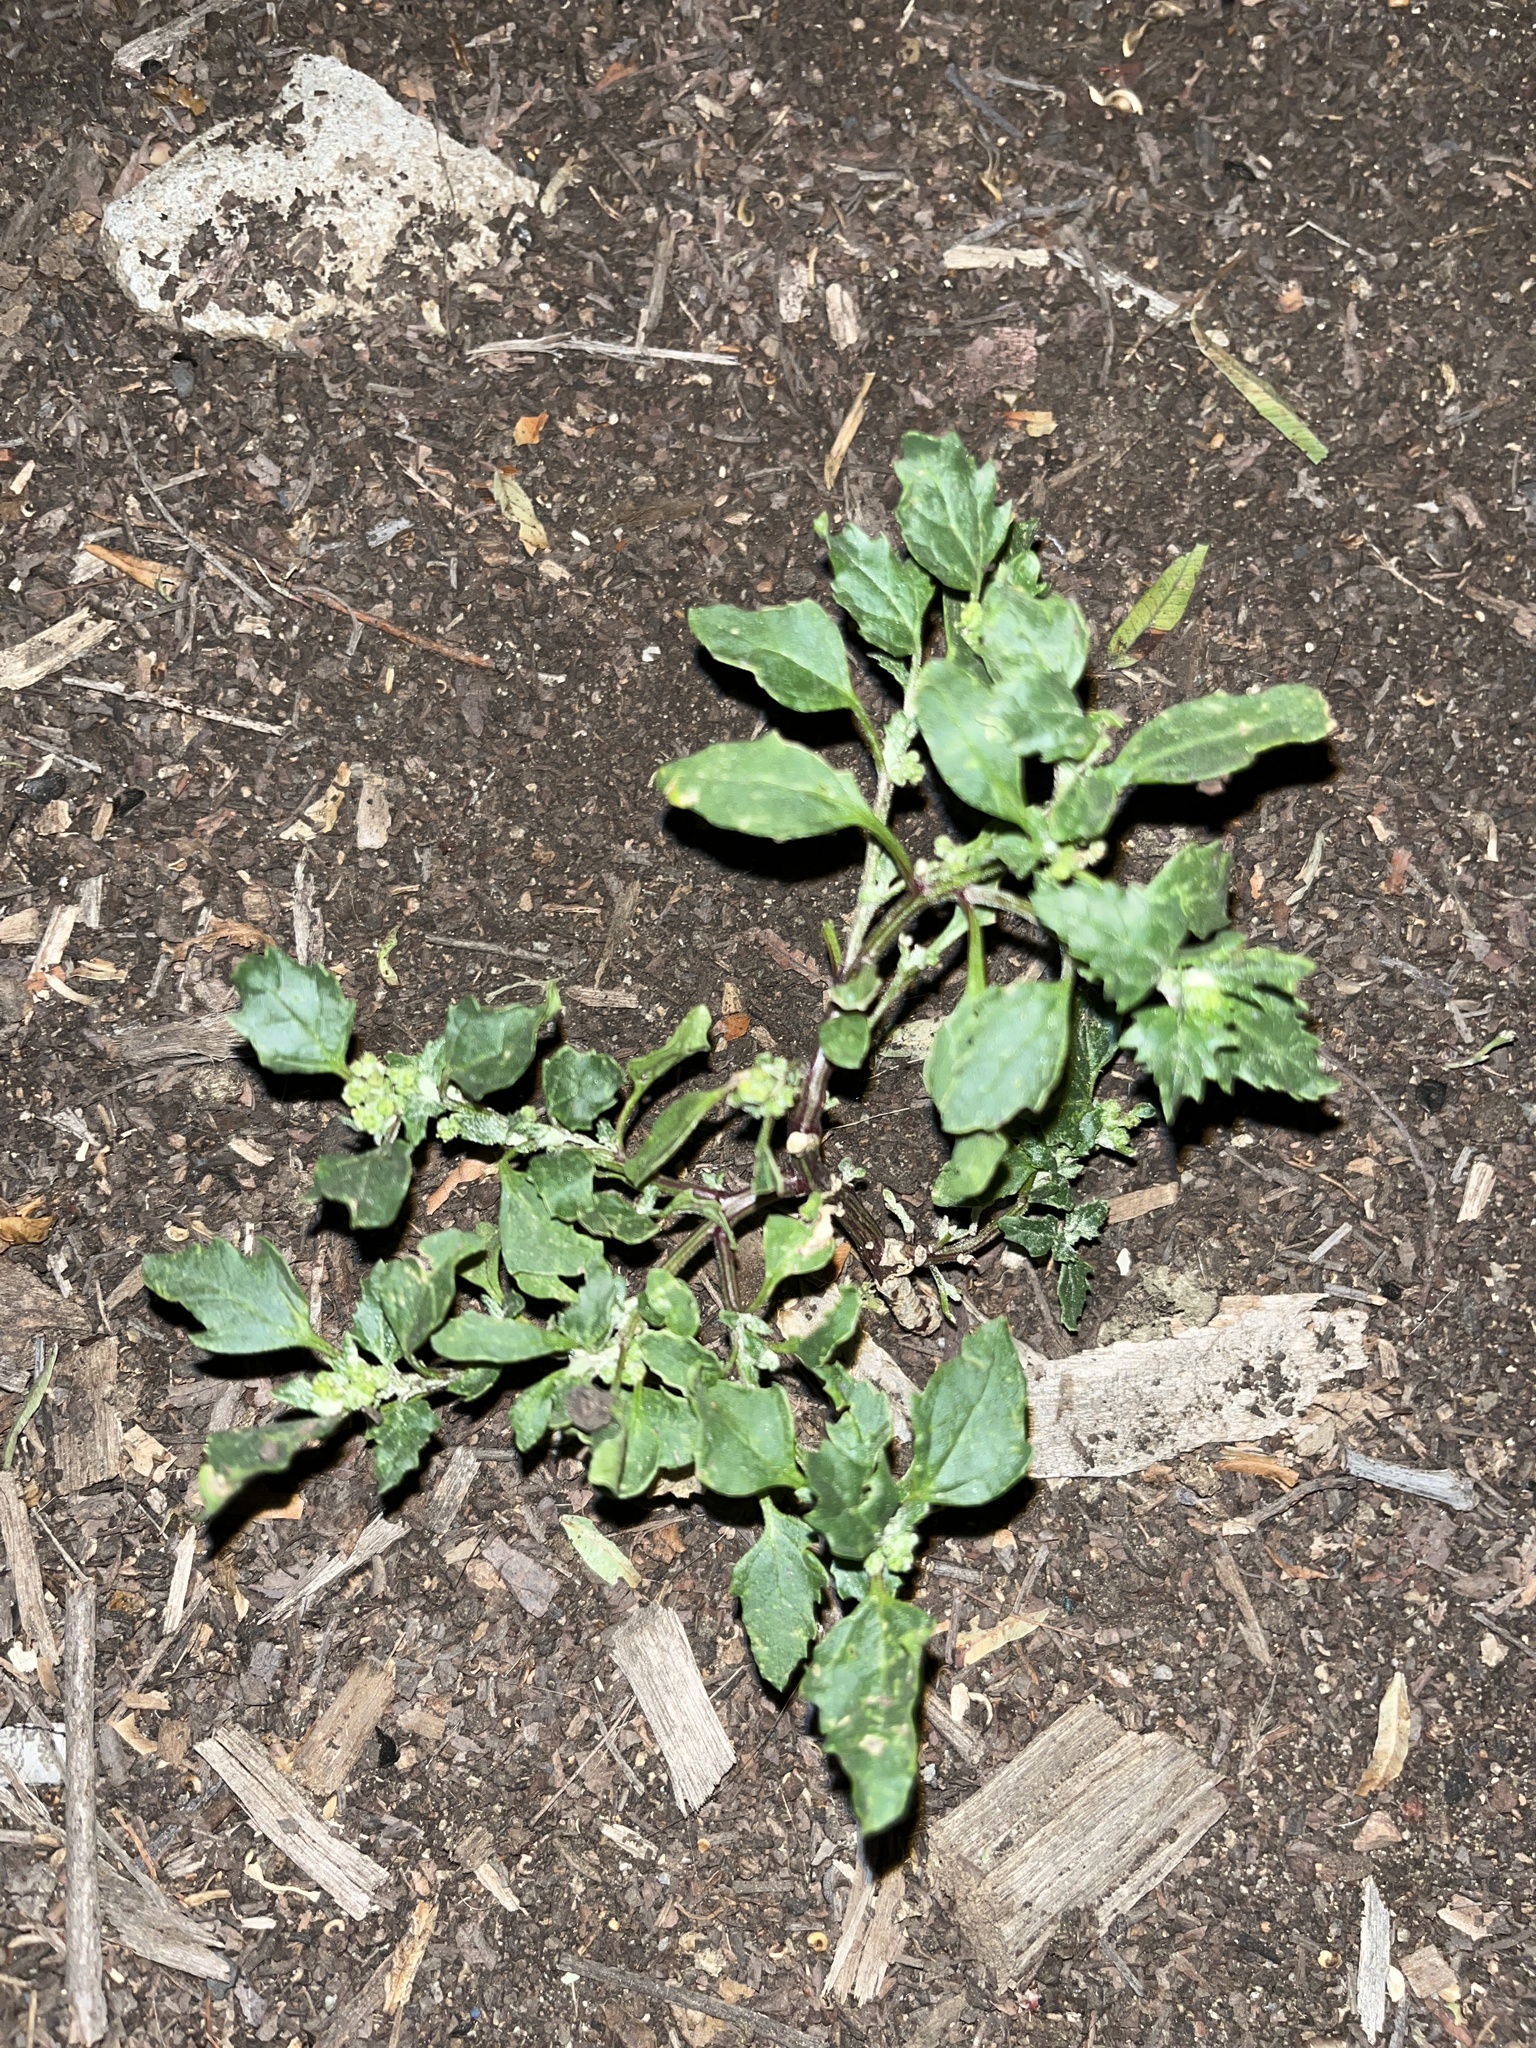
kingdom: Plantae
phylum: Tracheophyta
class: Magnoliopsida
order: Caryophyllales
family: Amaranthaceae
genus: Chenopodiastrum
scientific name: Chenopodiastrum murale
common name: Sowbane
